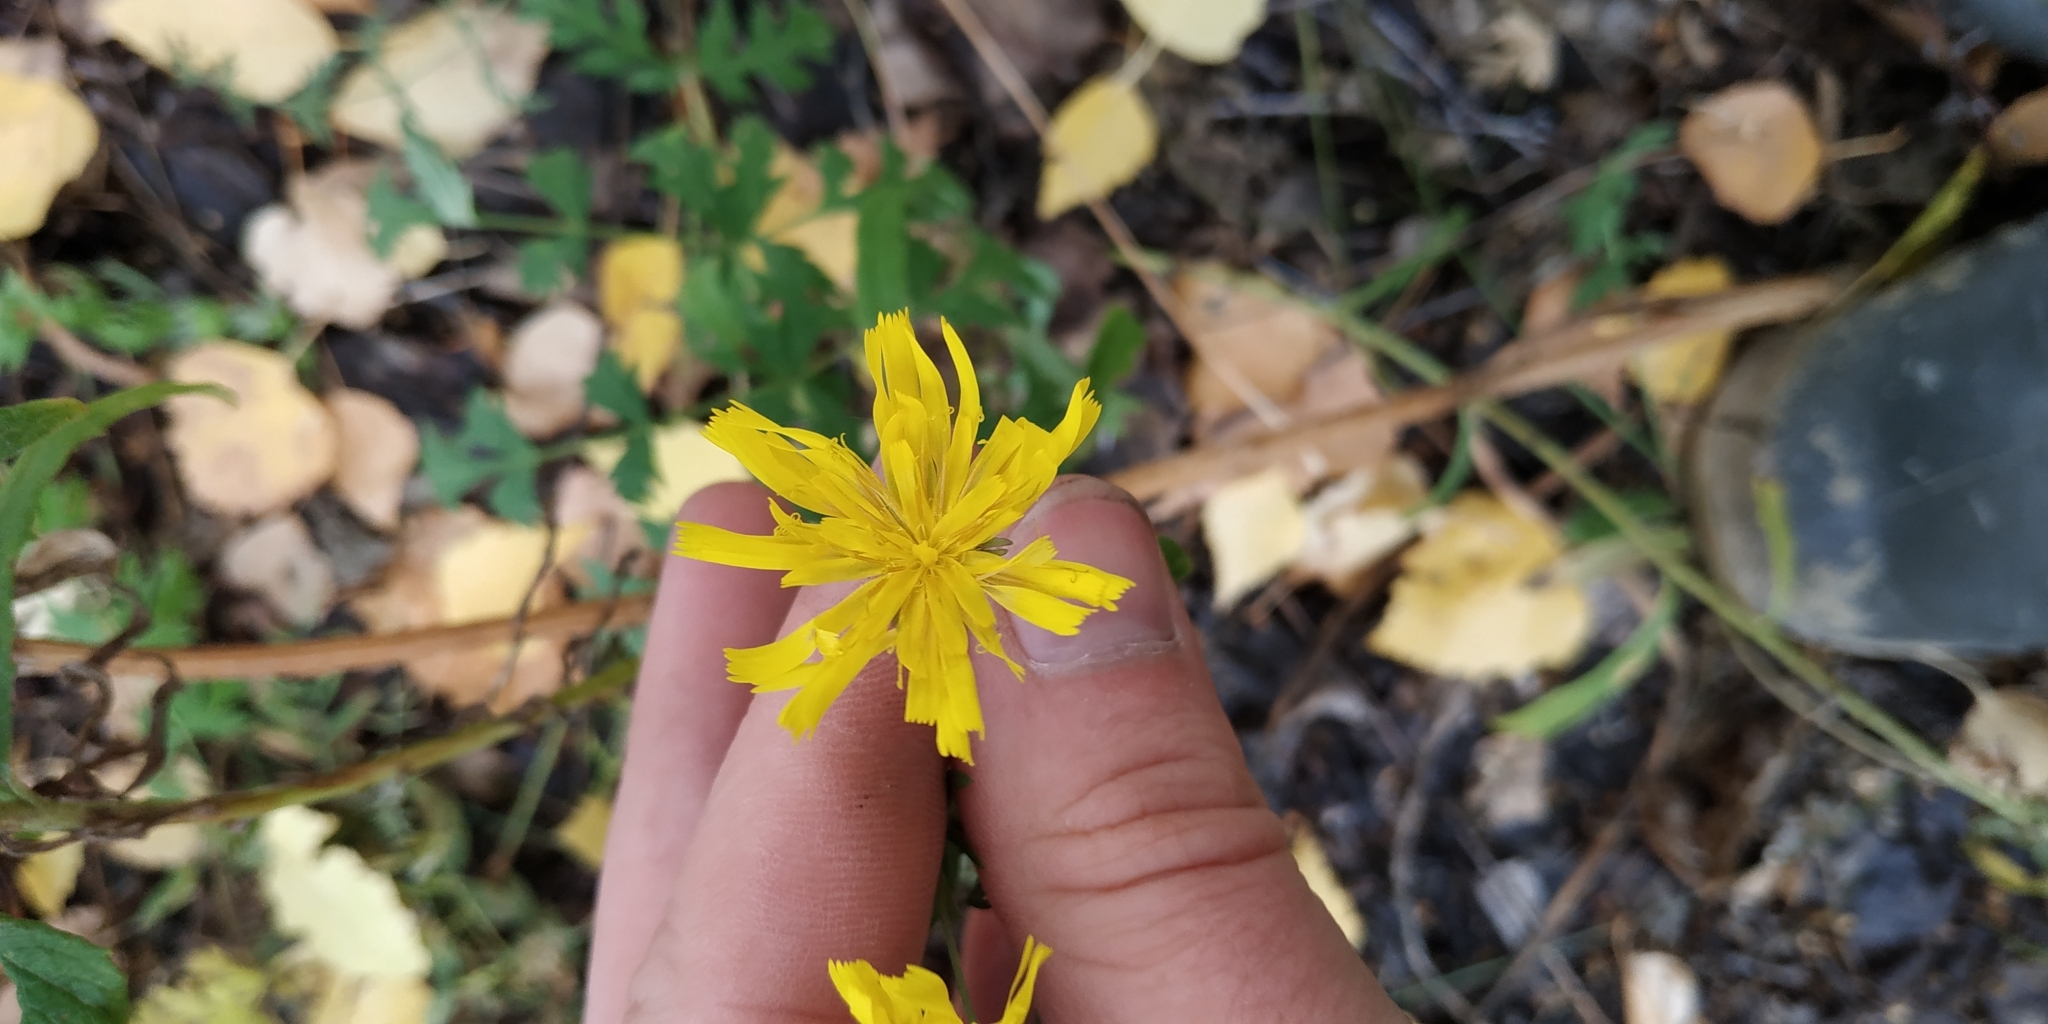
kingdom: Plantae
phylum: Tracheophyta
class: Magnoliopsida
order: Asterales
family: Asteraceae
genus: Hieracium
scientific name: Hieracium umbellatum
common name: Northern hawkweed
